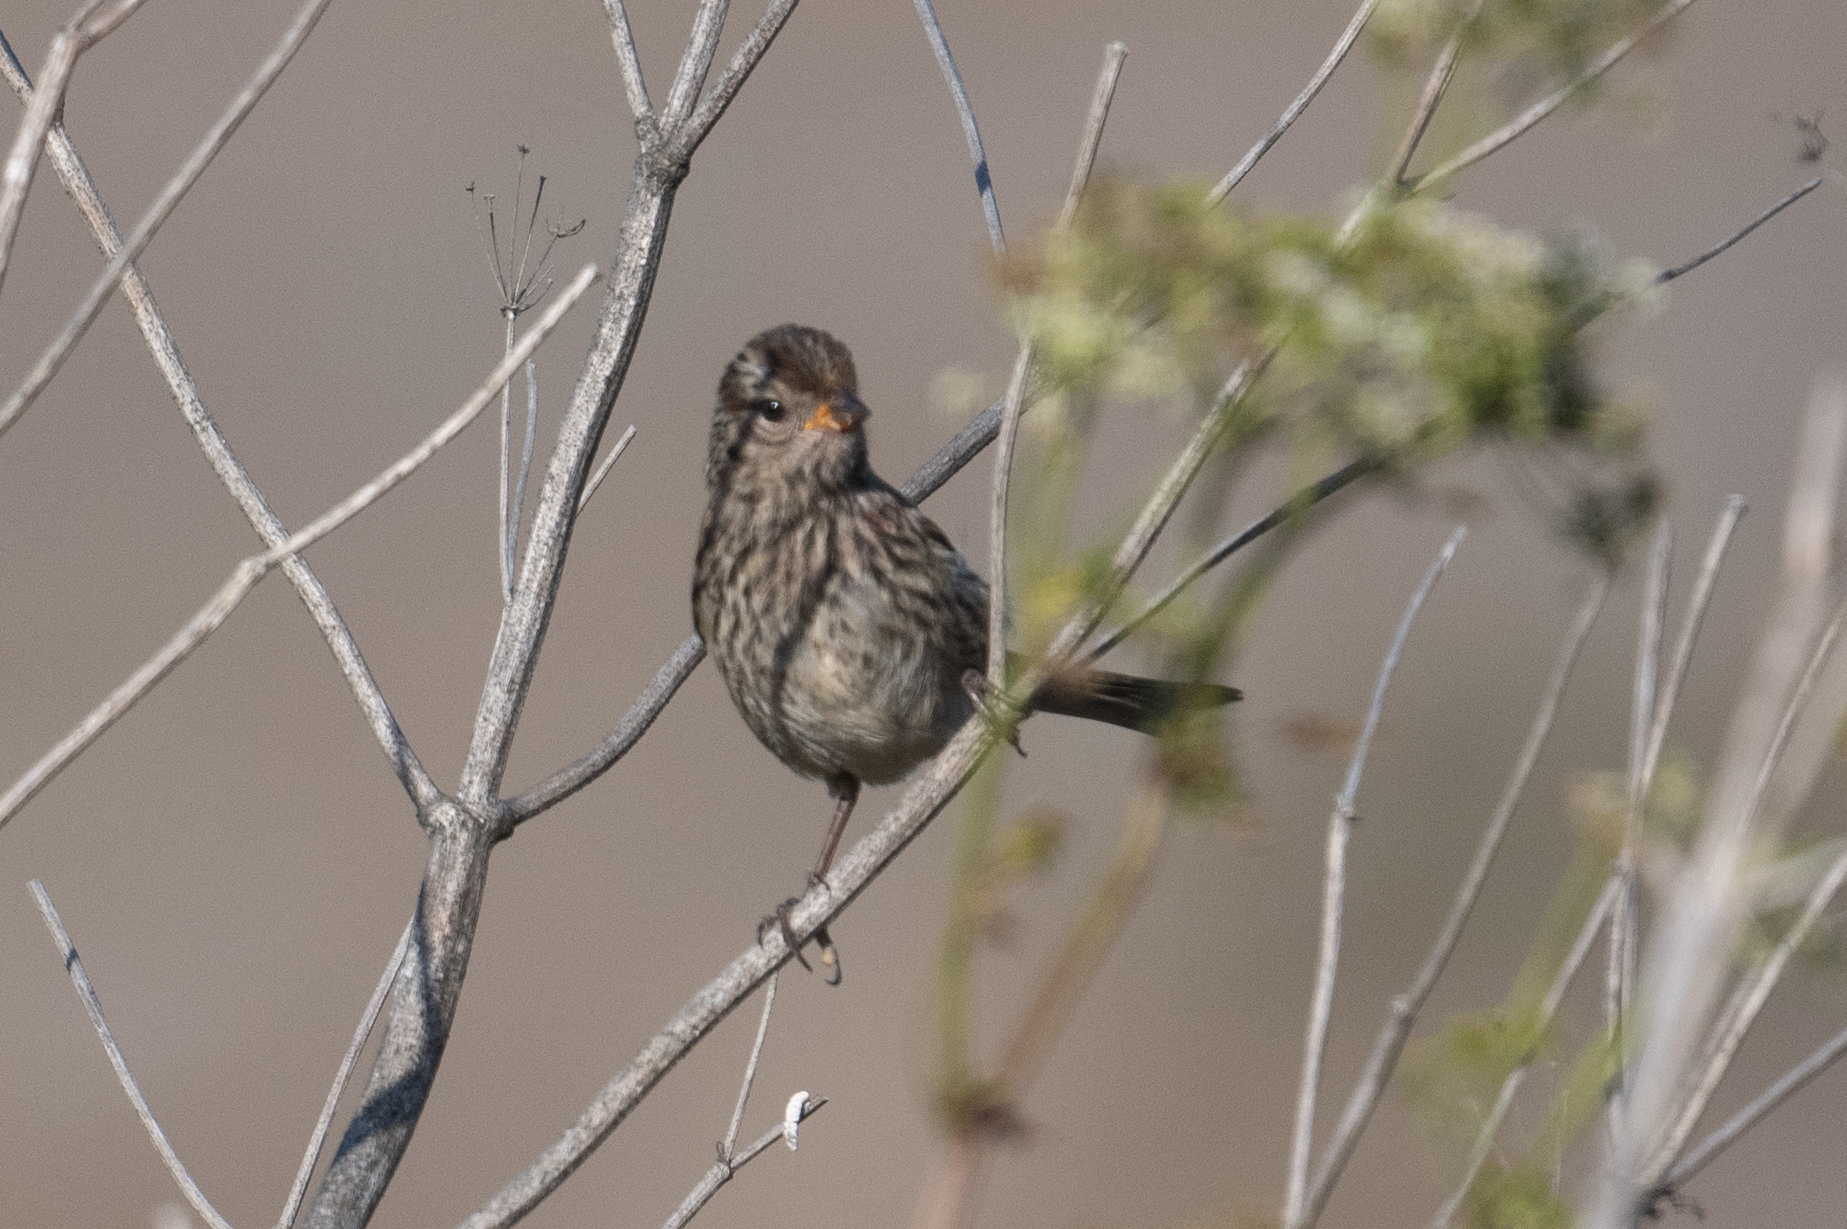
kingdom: Animalia
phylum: Chordata
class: Aves
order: Passeriformes
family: Passerellidae
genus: Zonotrichia
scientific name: Zonotrichia leucophrys
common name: White-crowned sparrow
